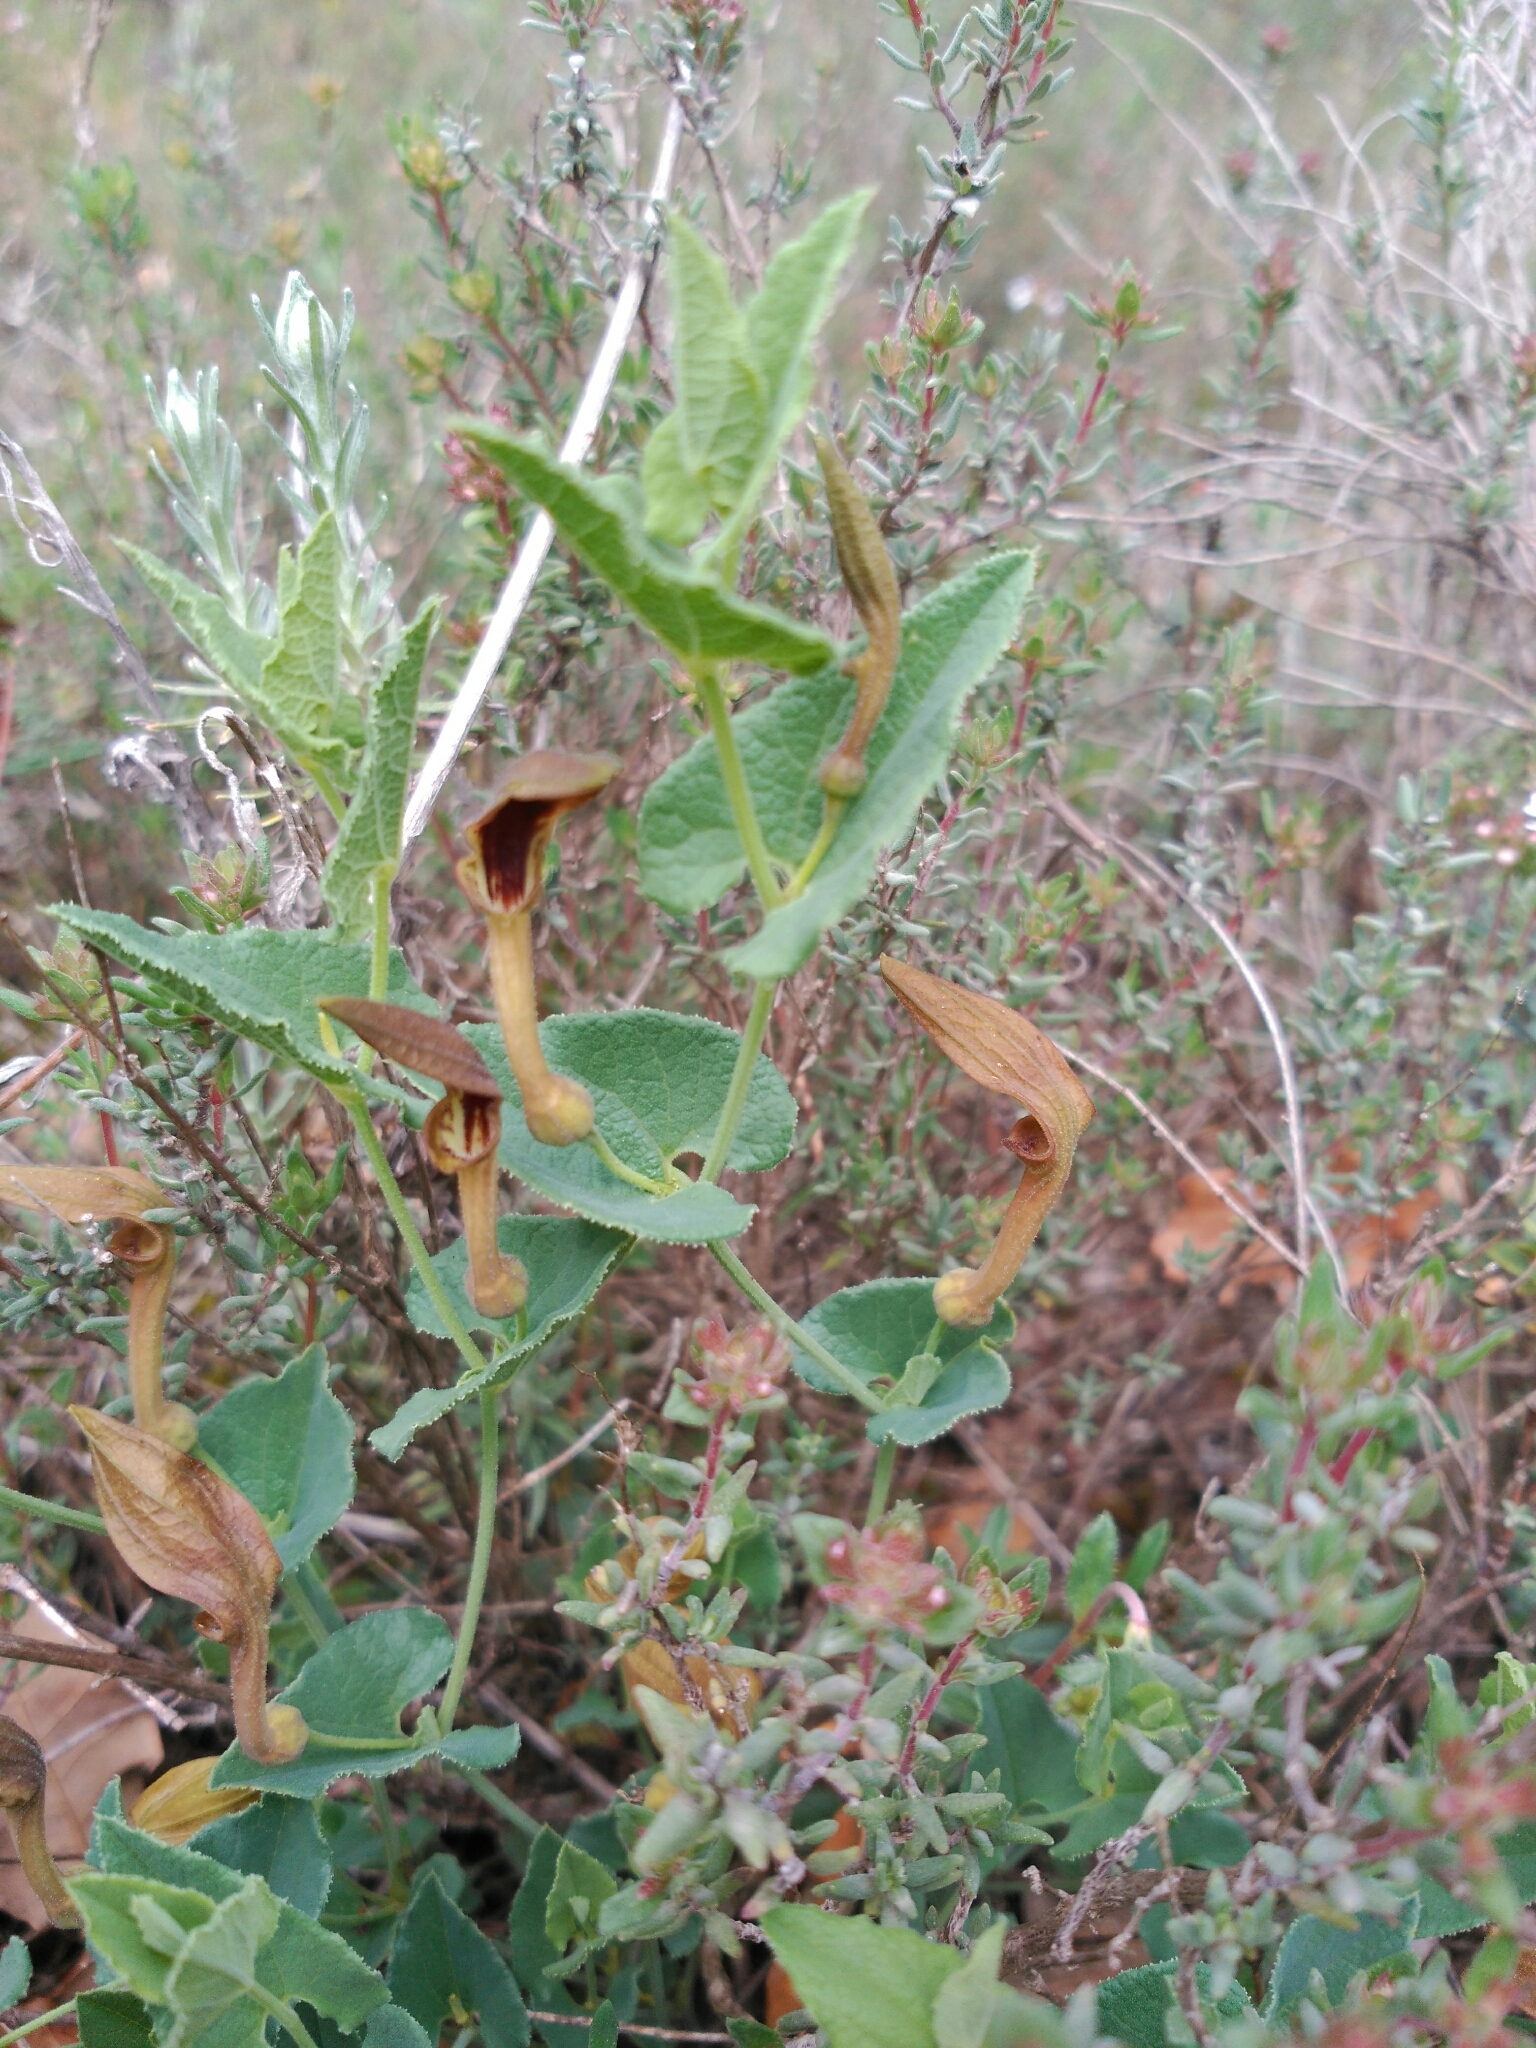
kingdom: Plantae
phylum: Tracheophyta
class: Magnoliopsida
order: Piperales
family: Aristolochiaceae
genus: Aristolochia
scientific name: Aristolochia pistolochia
